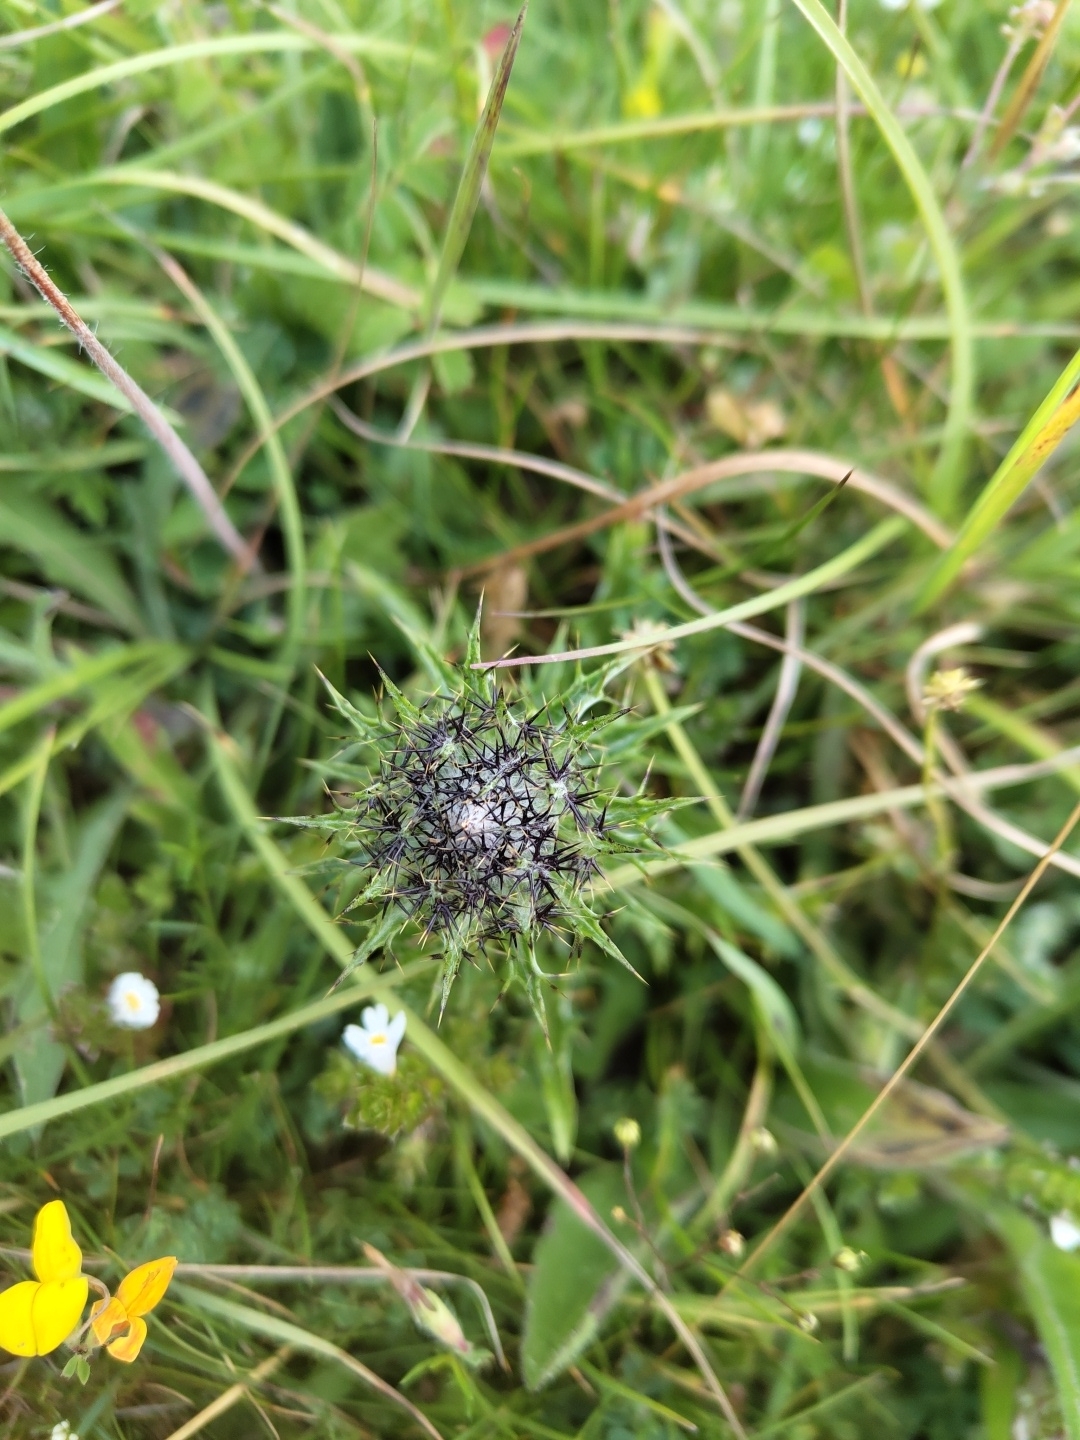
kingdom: Plantae
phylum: Tracheophyta
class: Magnoliopsida
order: Asterales
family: Asteraceae
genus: Carlina
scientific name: Carlina vulgaris
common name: Carline thistle
